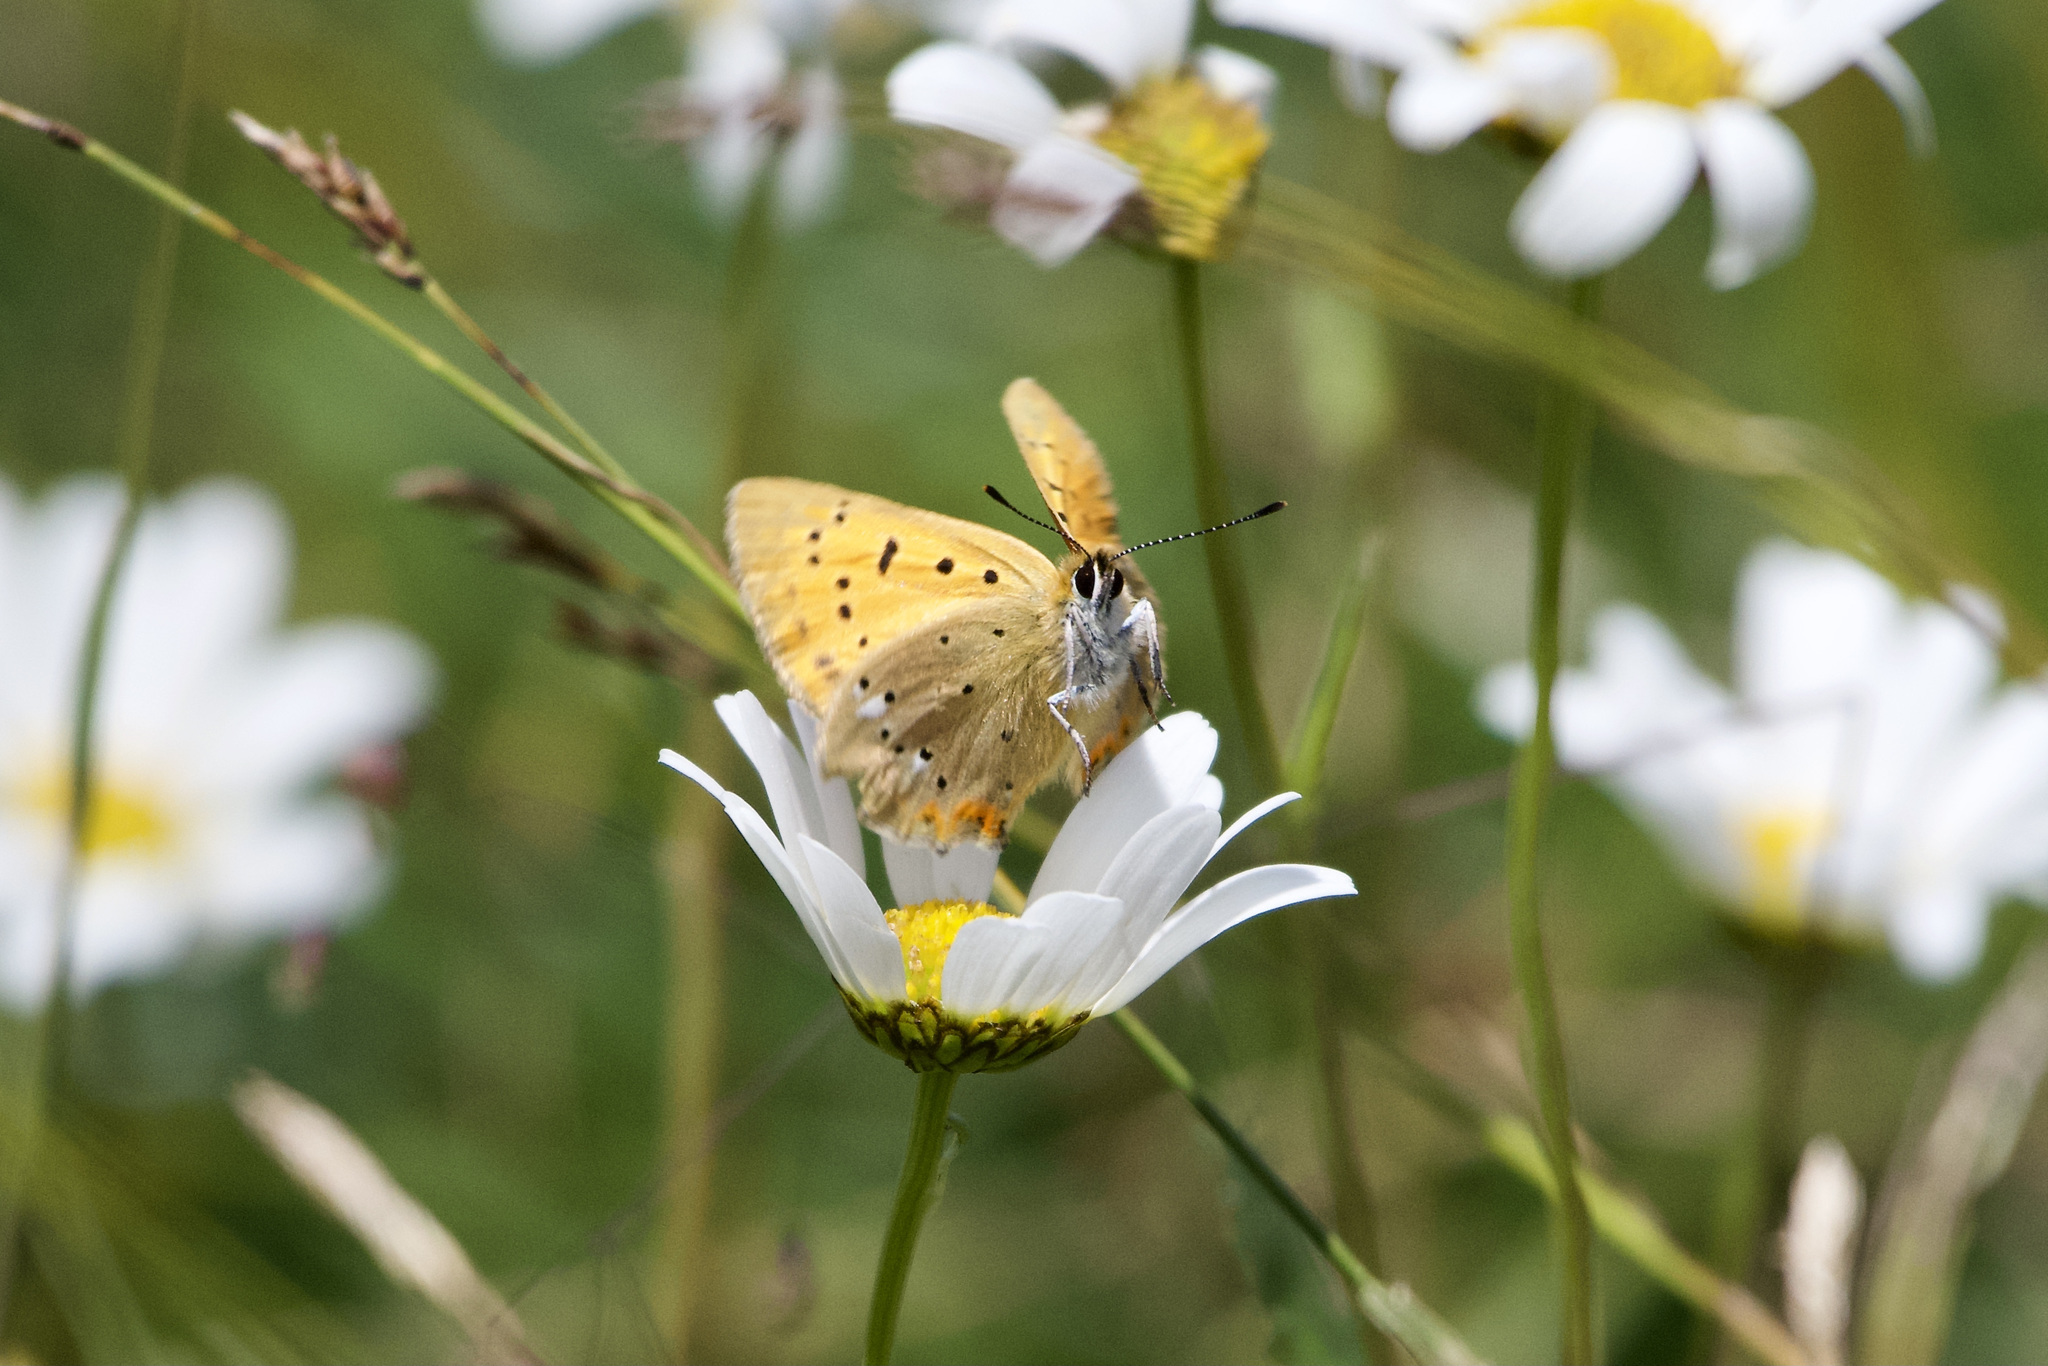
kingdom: Animalia
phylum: Arthropoda
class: Insecta
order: Lepidoptera
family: Lycaenidae
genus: Lycaena
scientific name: Lycaena virgaureae
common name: Scarce copper
